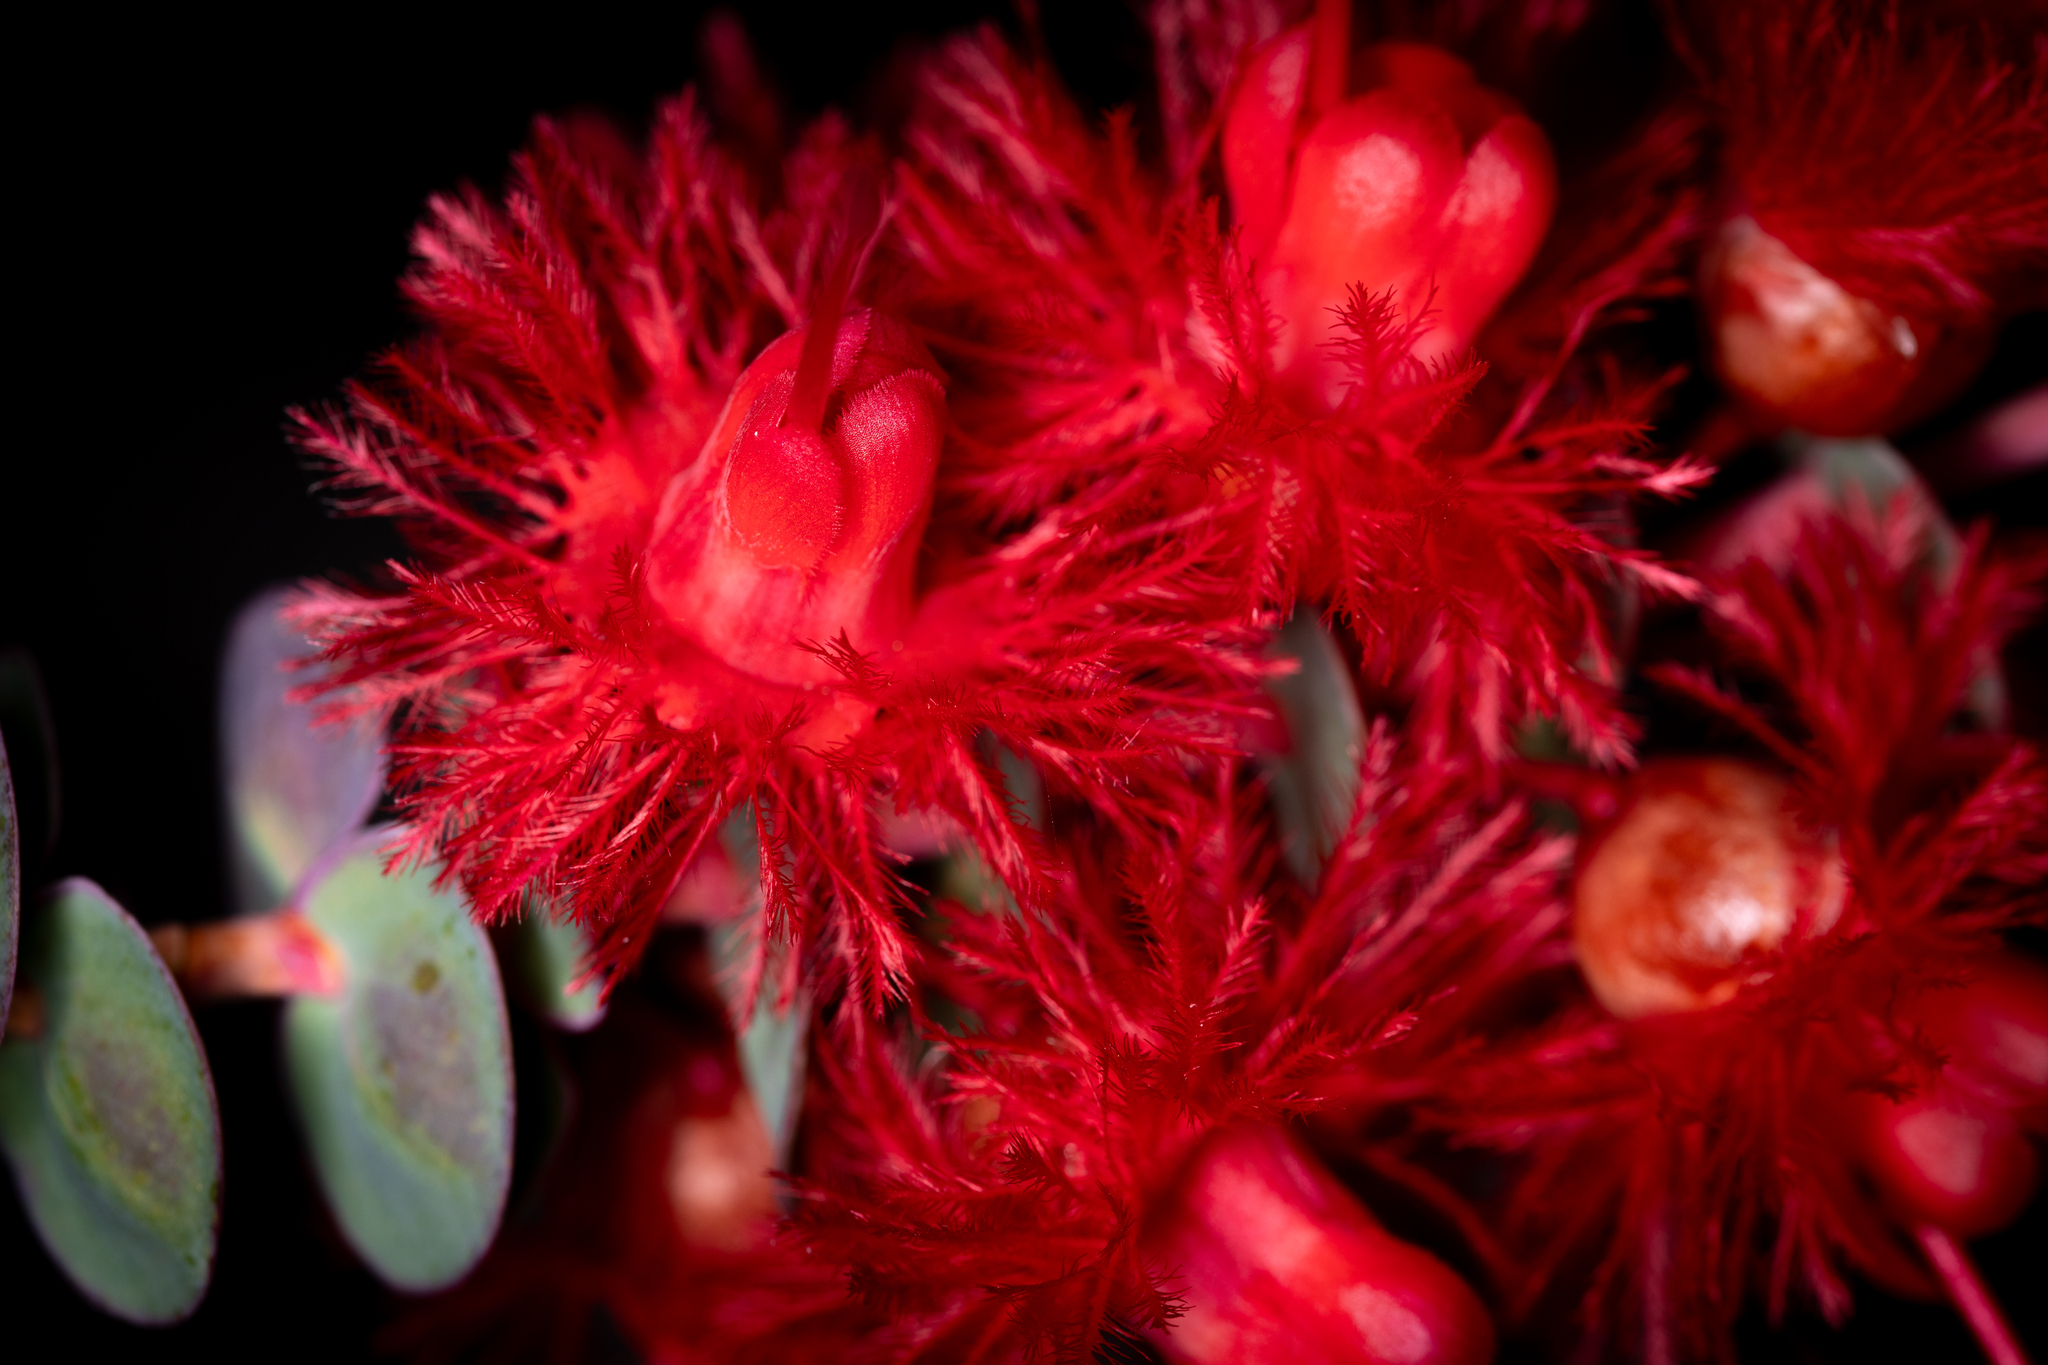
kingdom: Plantae
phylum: Tracheophyta
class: Magnoliopsida
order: Myrtales
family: Myrtaceae
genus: Verticordia
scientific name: Verticordia grandis
